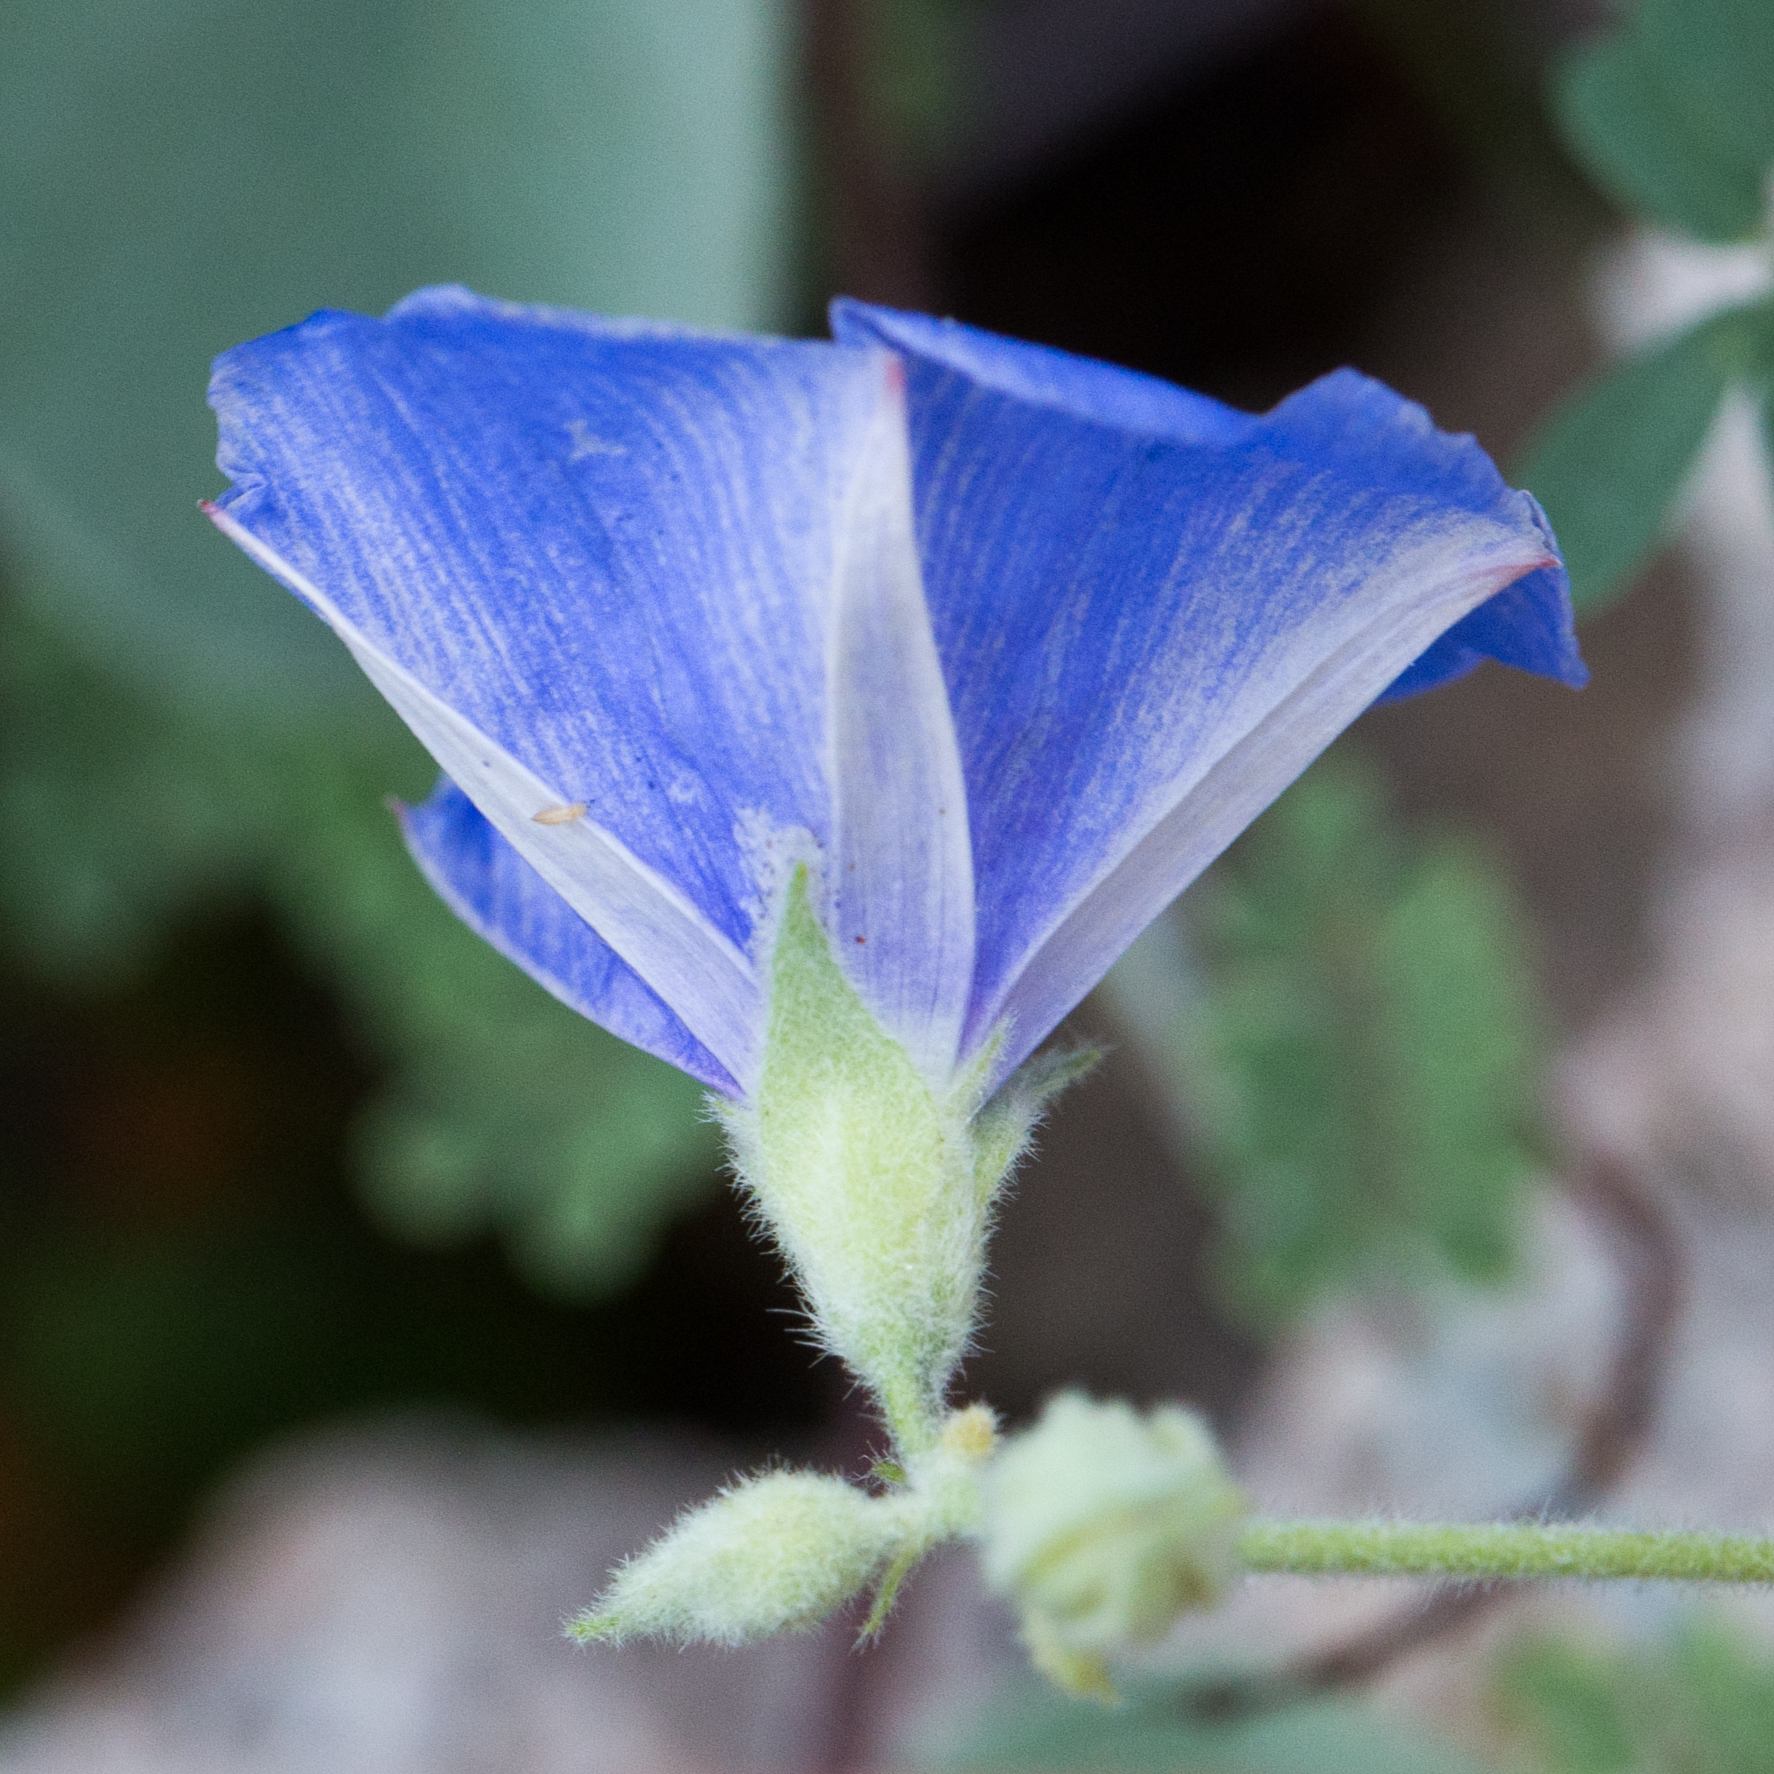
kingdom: Plantae
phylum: Tracheophyta
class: Magnoliopsida
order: Solanales
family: Convolvulaceae
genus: Jacquemontia
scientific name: Jacquemontia abutiloides
